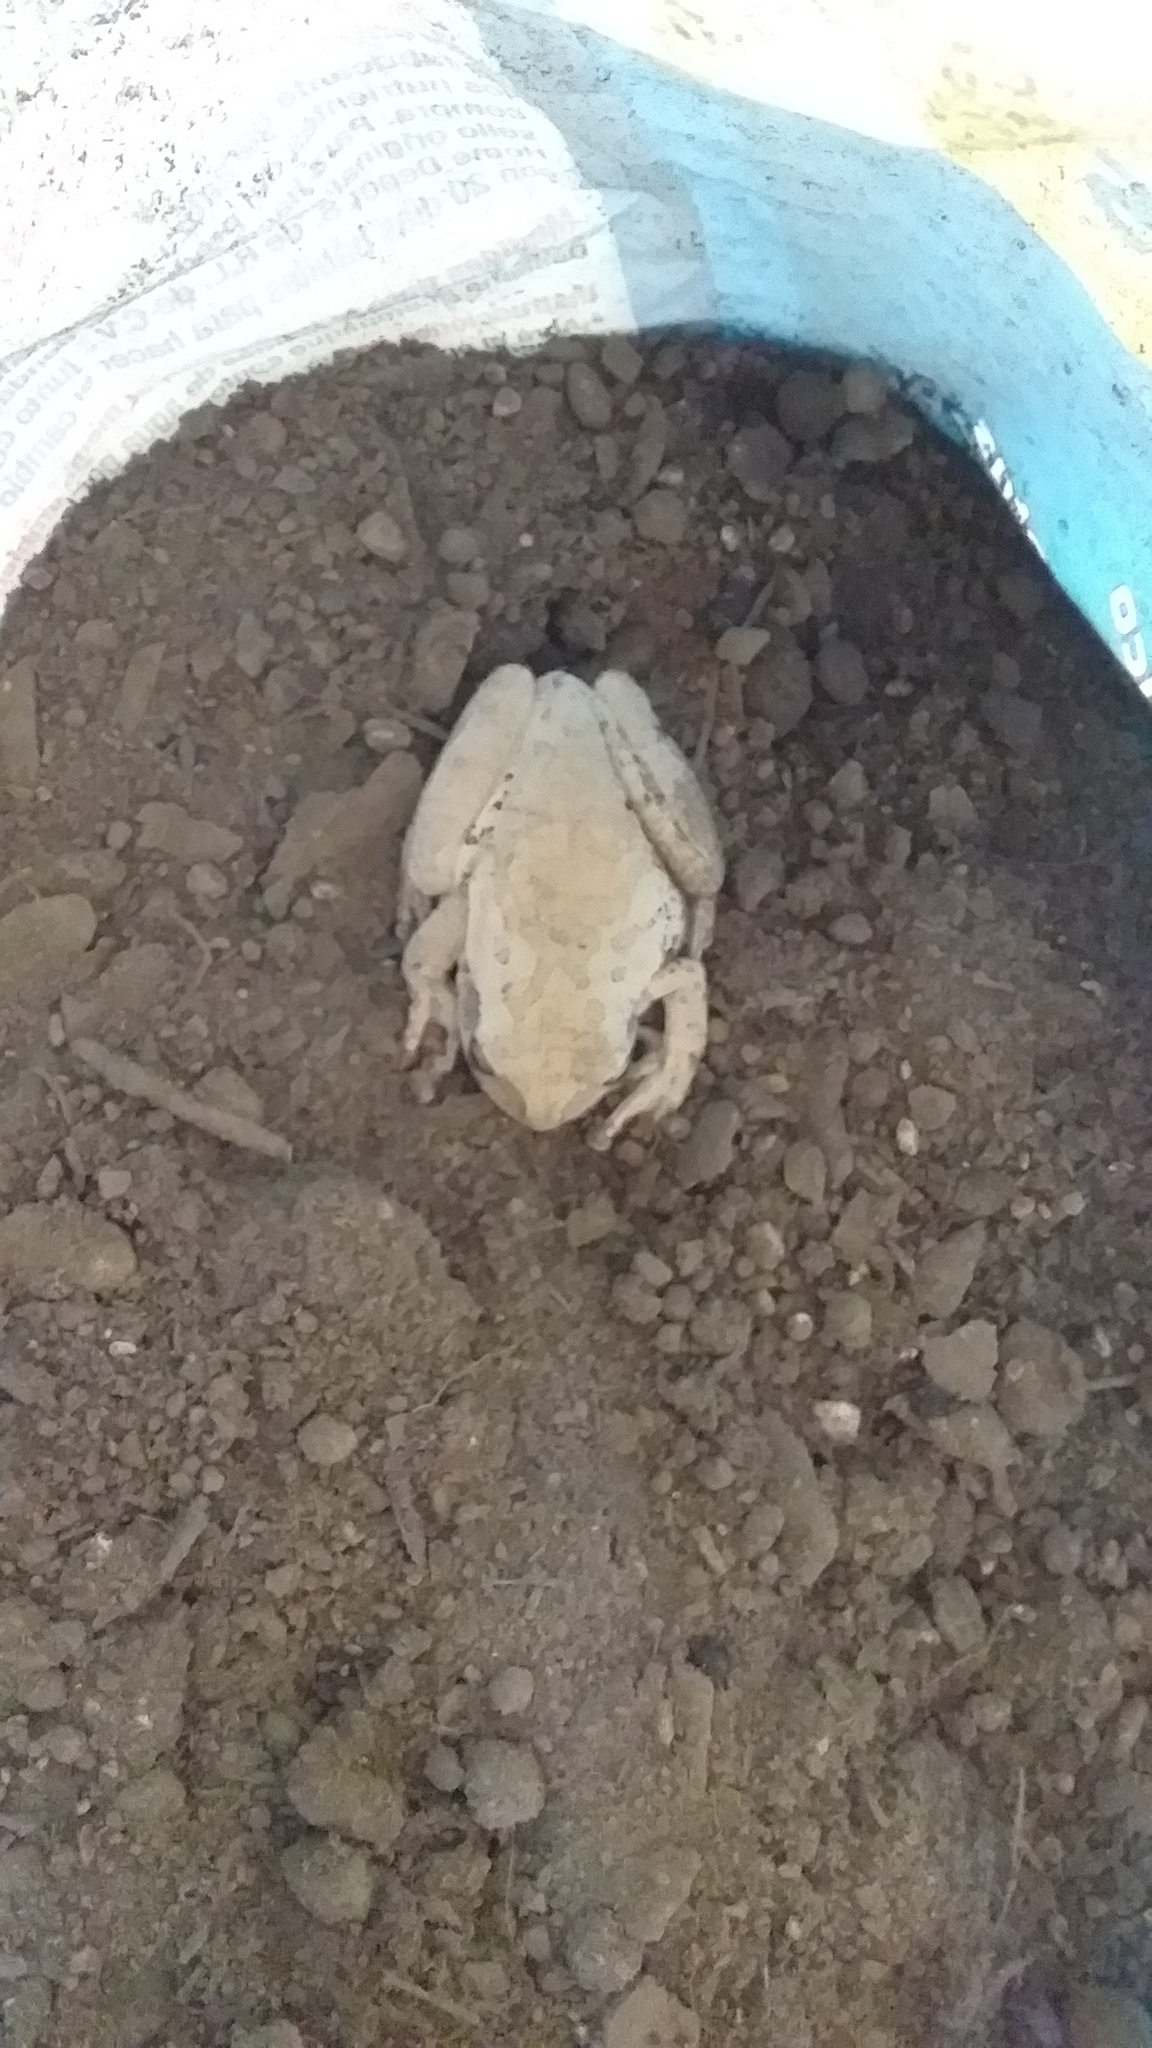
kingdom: Animalia
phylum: Chordata
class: Amphibia
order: Anura
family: Hylidae
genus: Smilisca
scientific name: Smilisca baudinii
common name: Mexican smilisca
